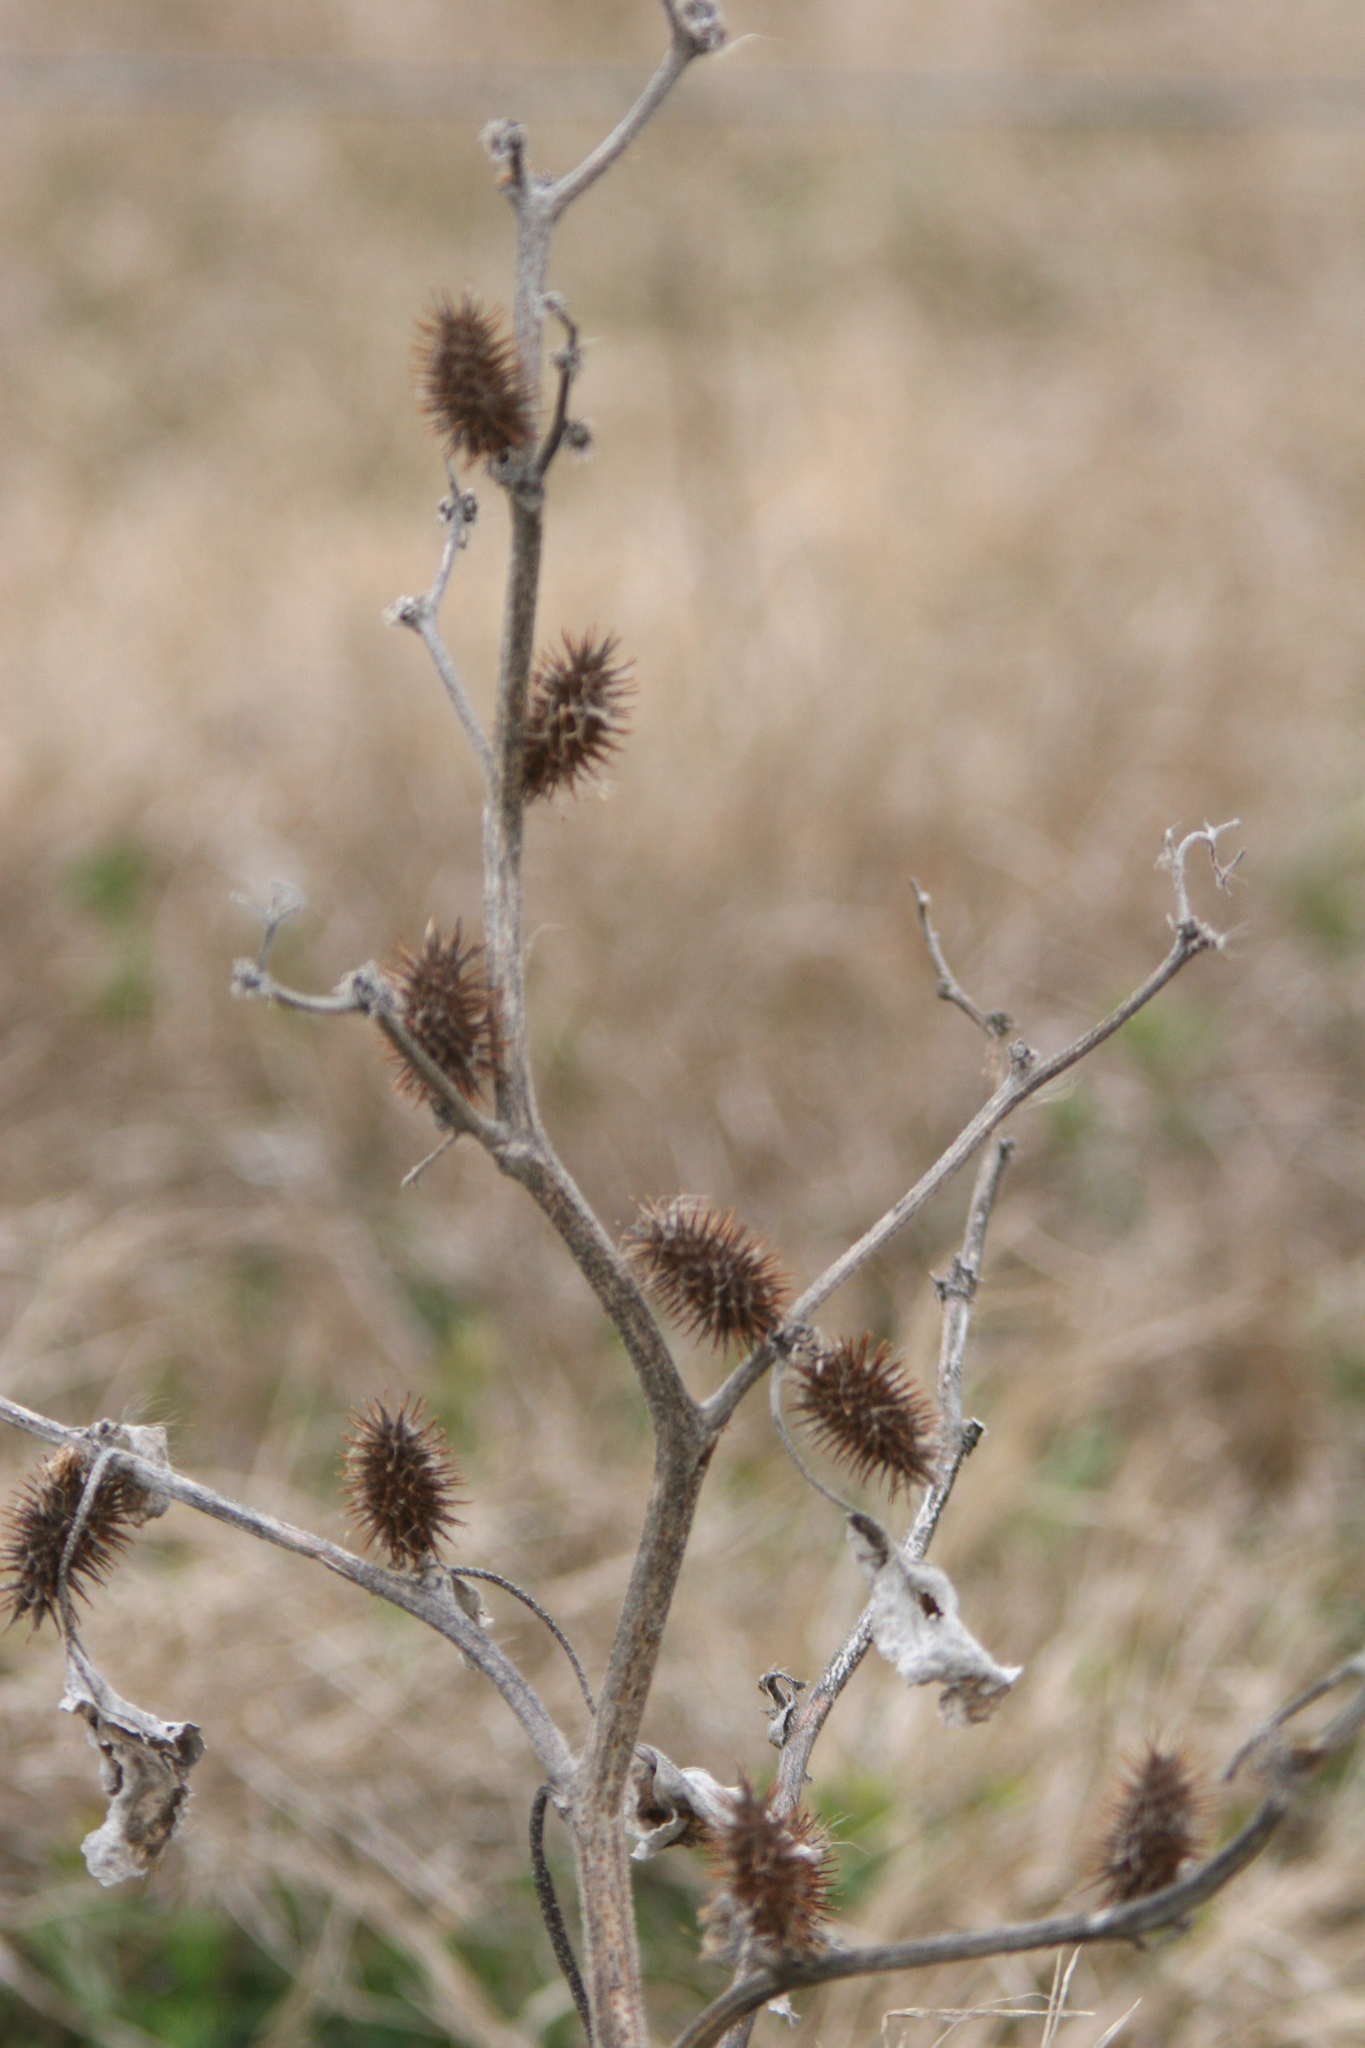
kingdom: Plantae
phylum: Tracheophyta
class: Magnoliopsida
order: Asterales
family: Asteraceae
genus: Xanthium
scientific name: Xanthium strumarium
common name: Rough cocklebur
